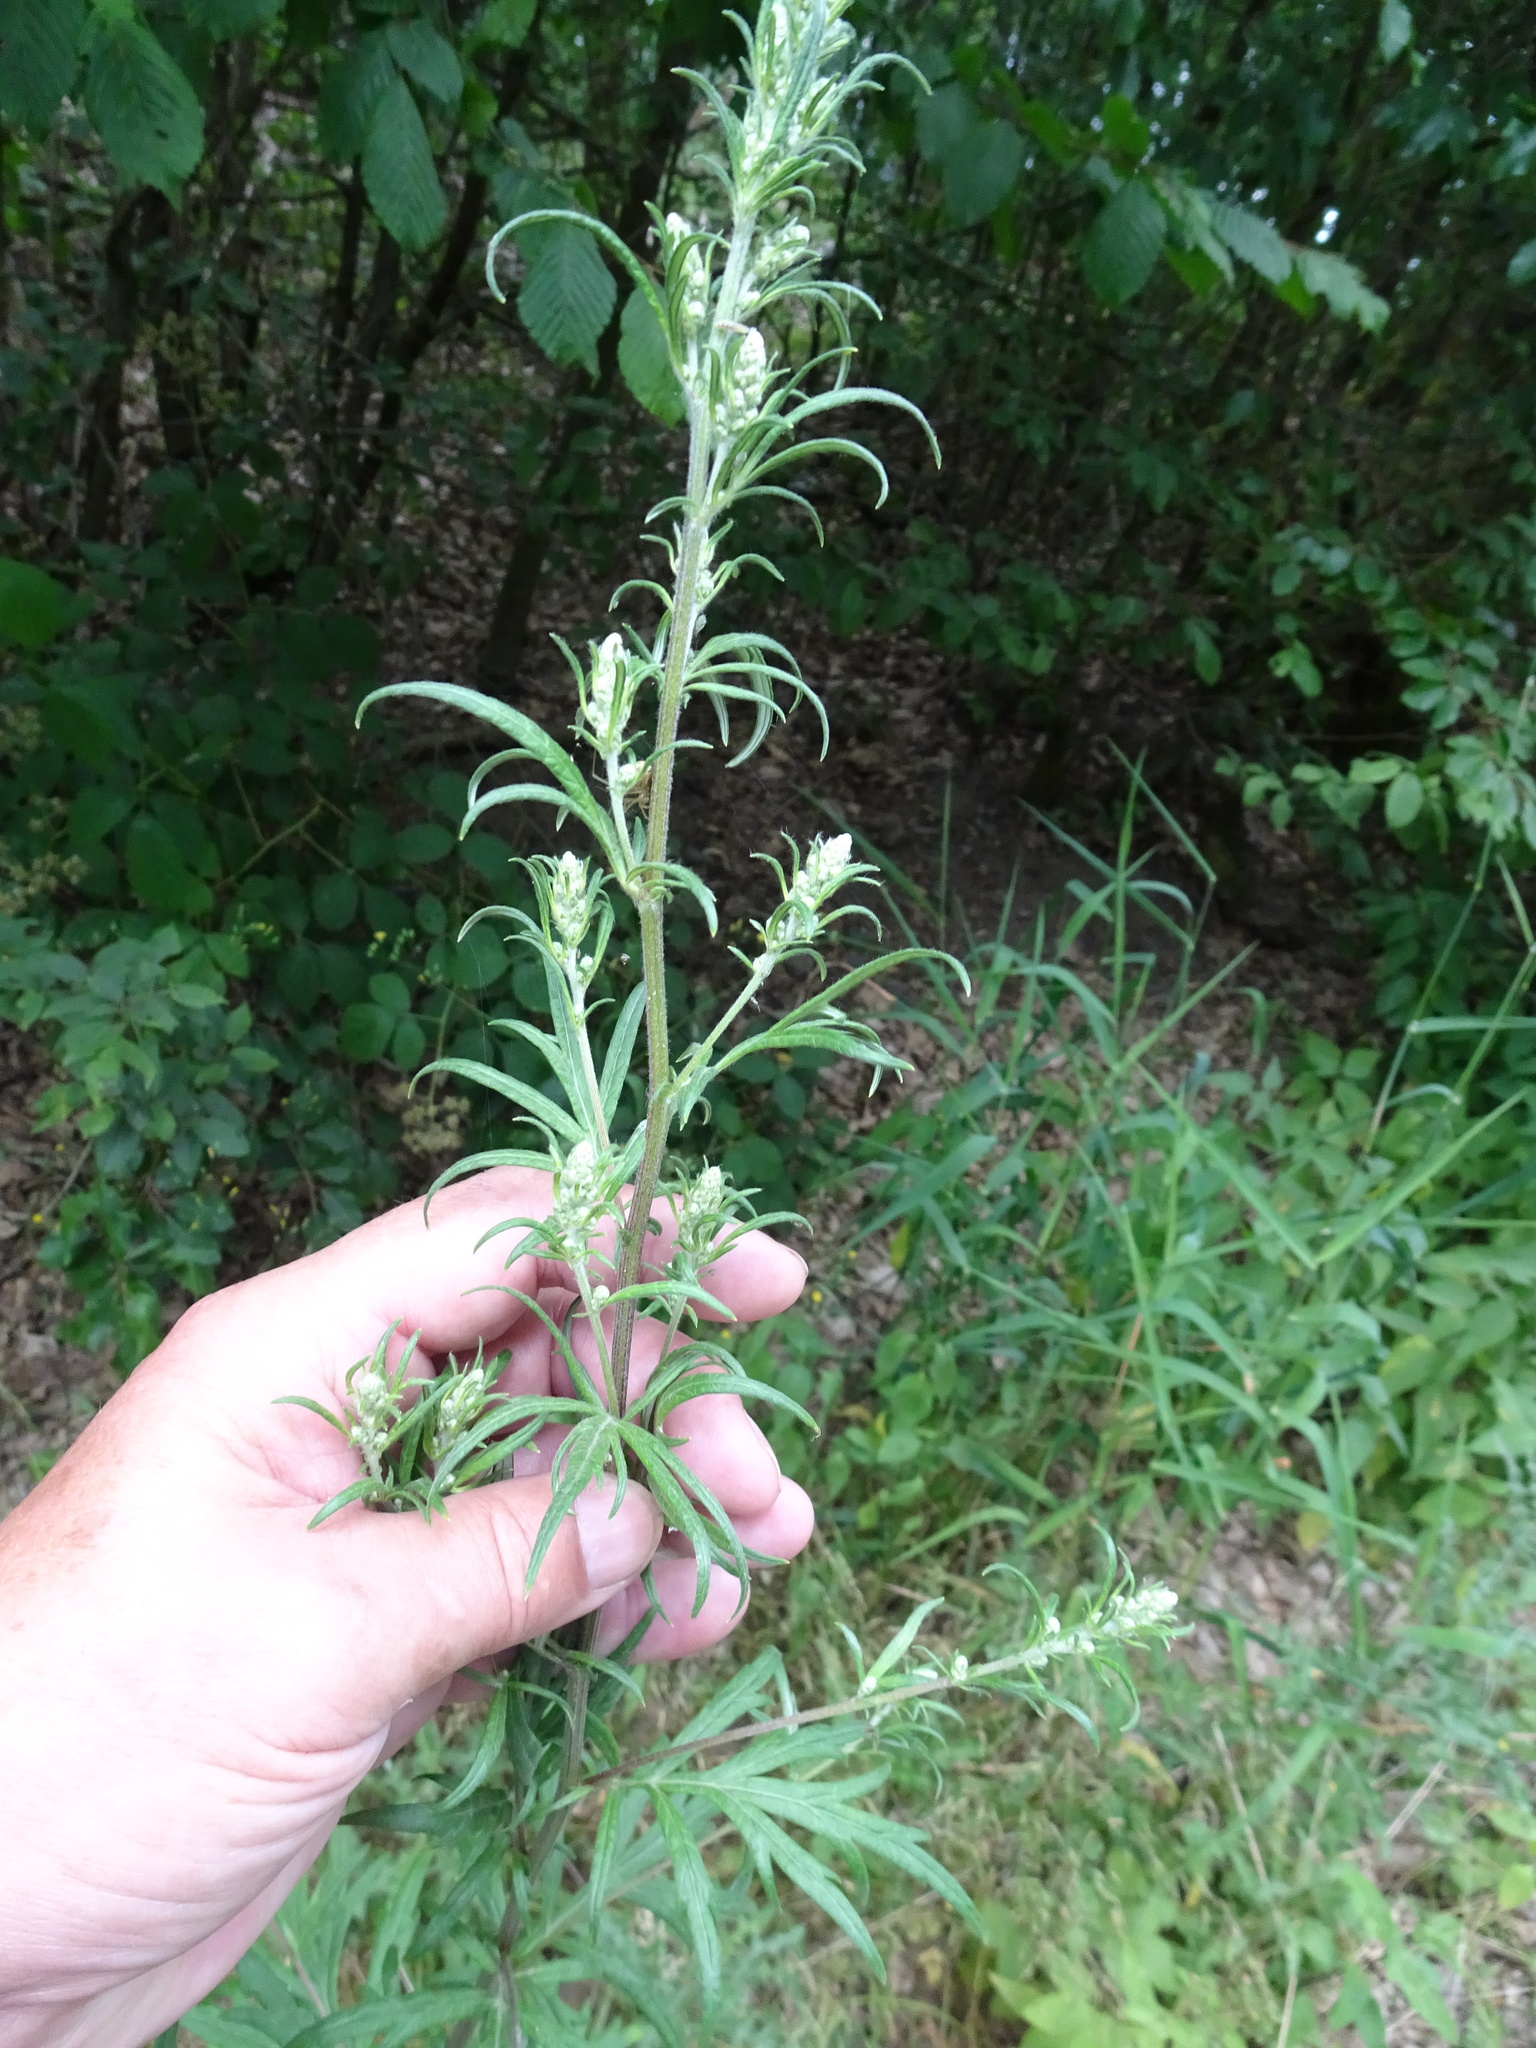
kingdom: Plantae
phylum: Tracheophyta
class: Magnoliopsida
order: Asterales
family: Asteraceae
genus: Artemisia
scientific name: Artemisia vulgaris
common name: Mugwort
